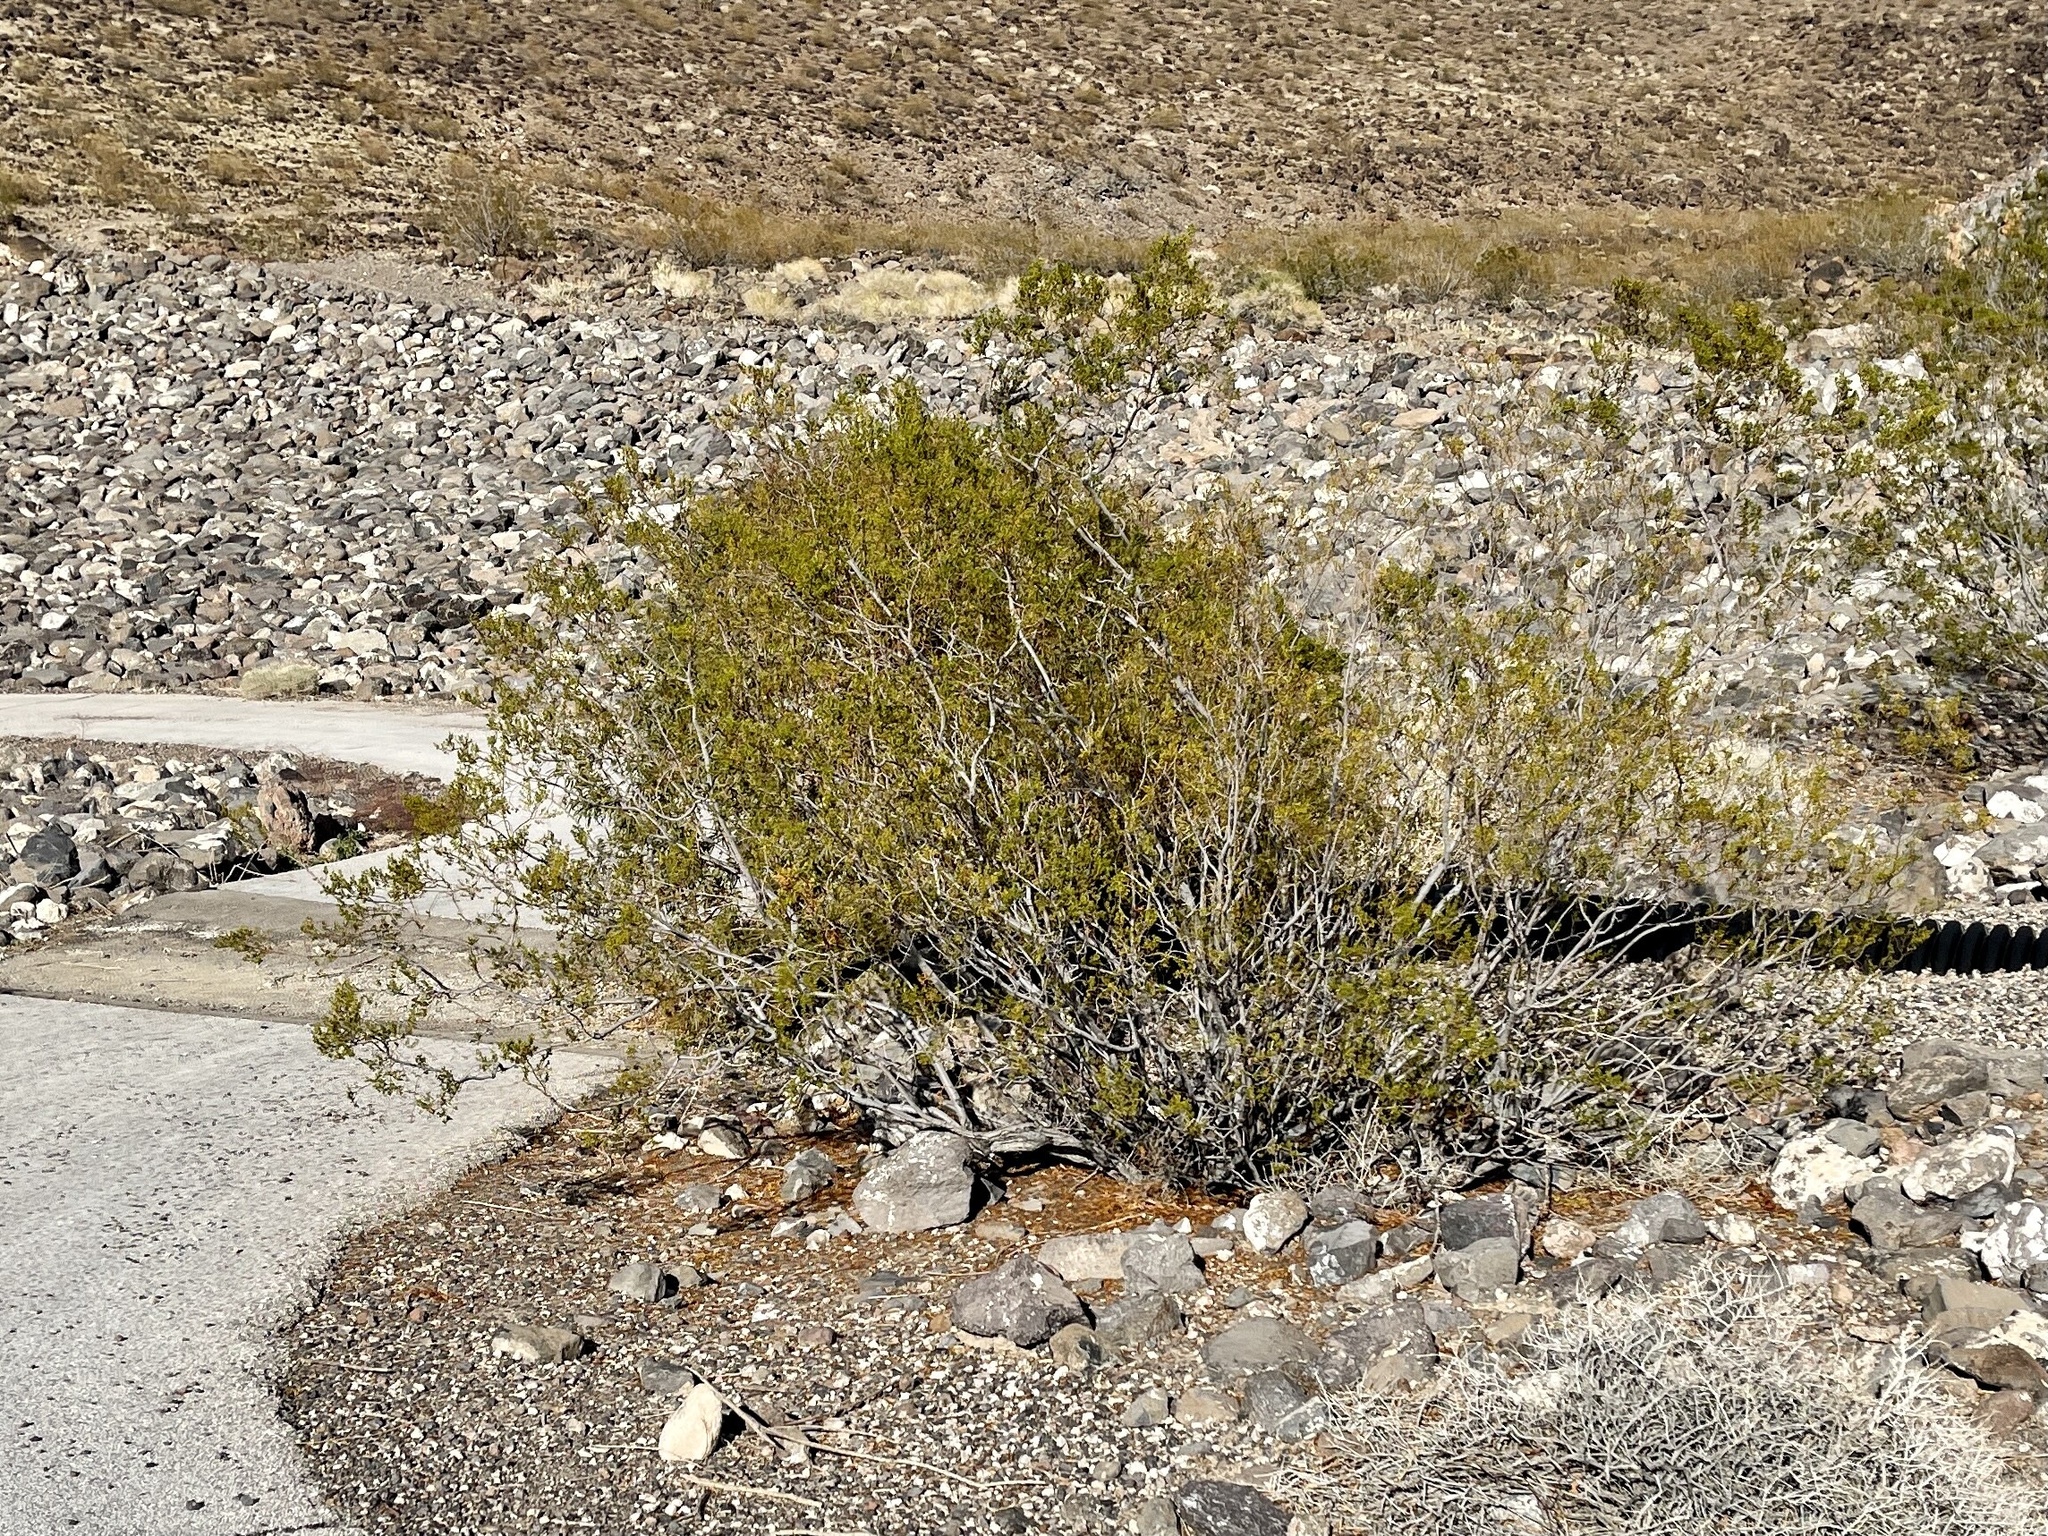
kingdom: Plantae
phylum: Tracheophyta
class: Magnoliopsida
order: Zygophyllales
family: Zygophyllaceae
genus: Larrea
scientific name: Larrea tridentata
